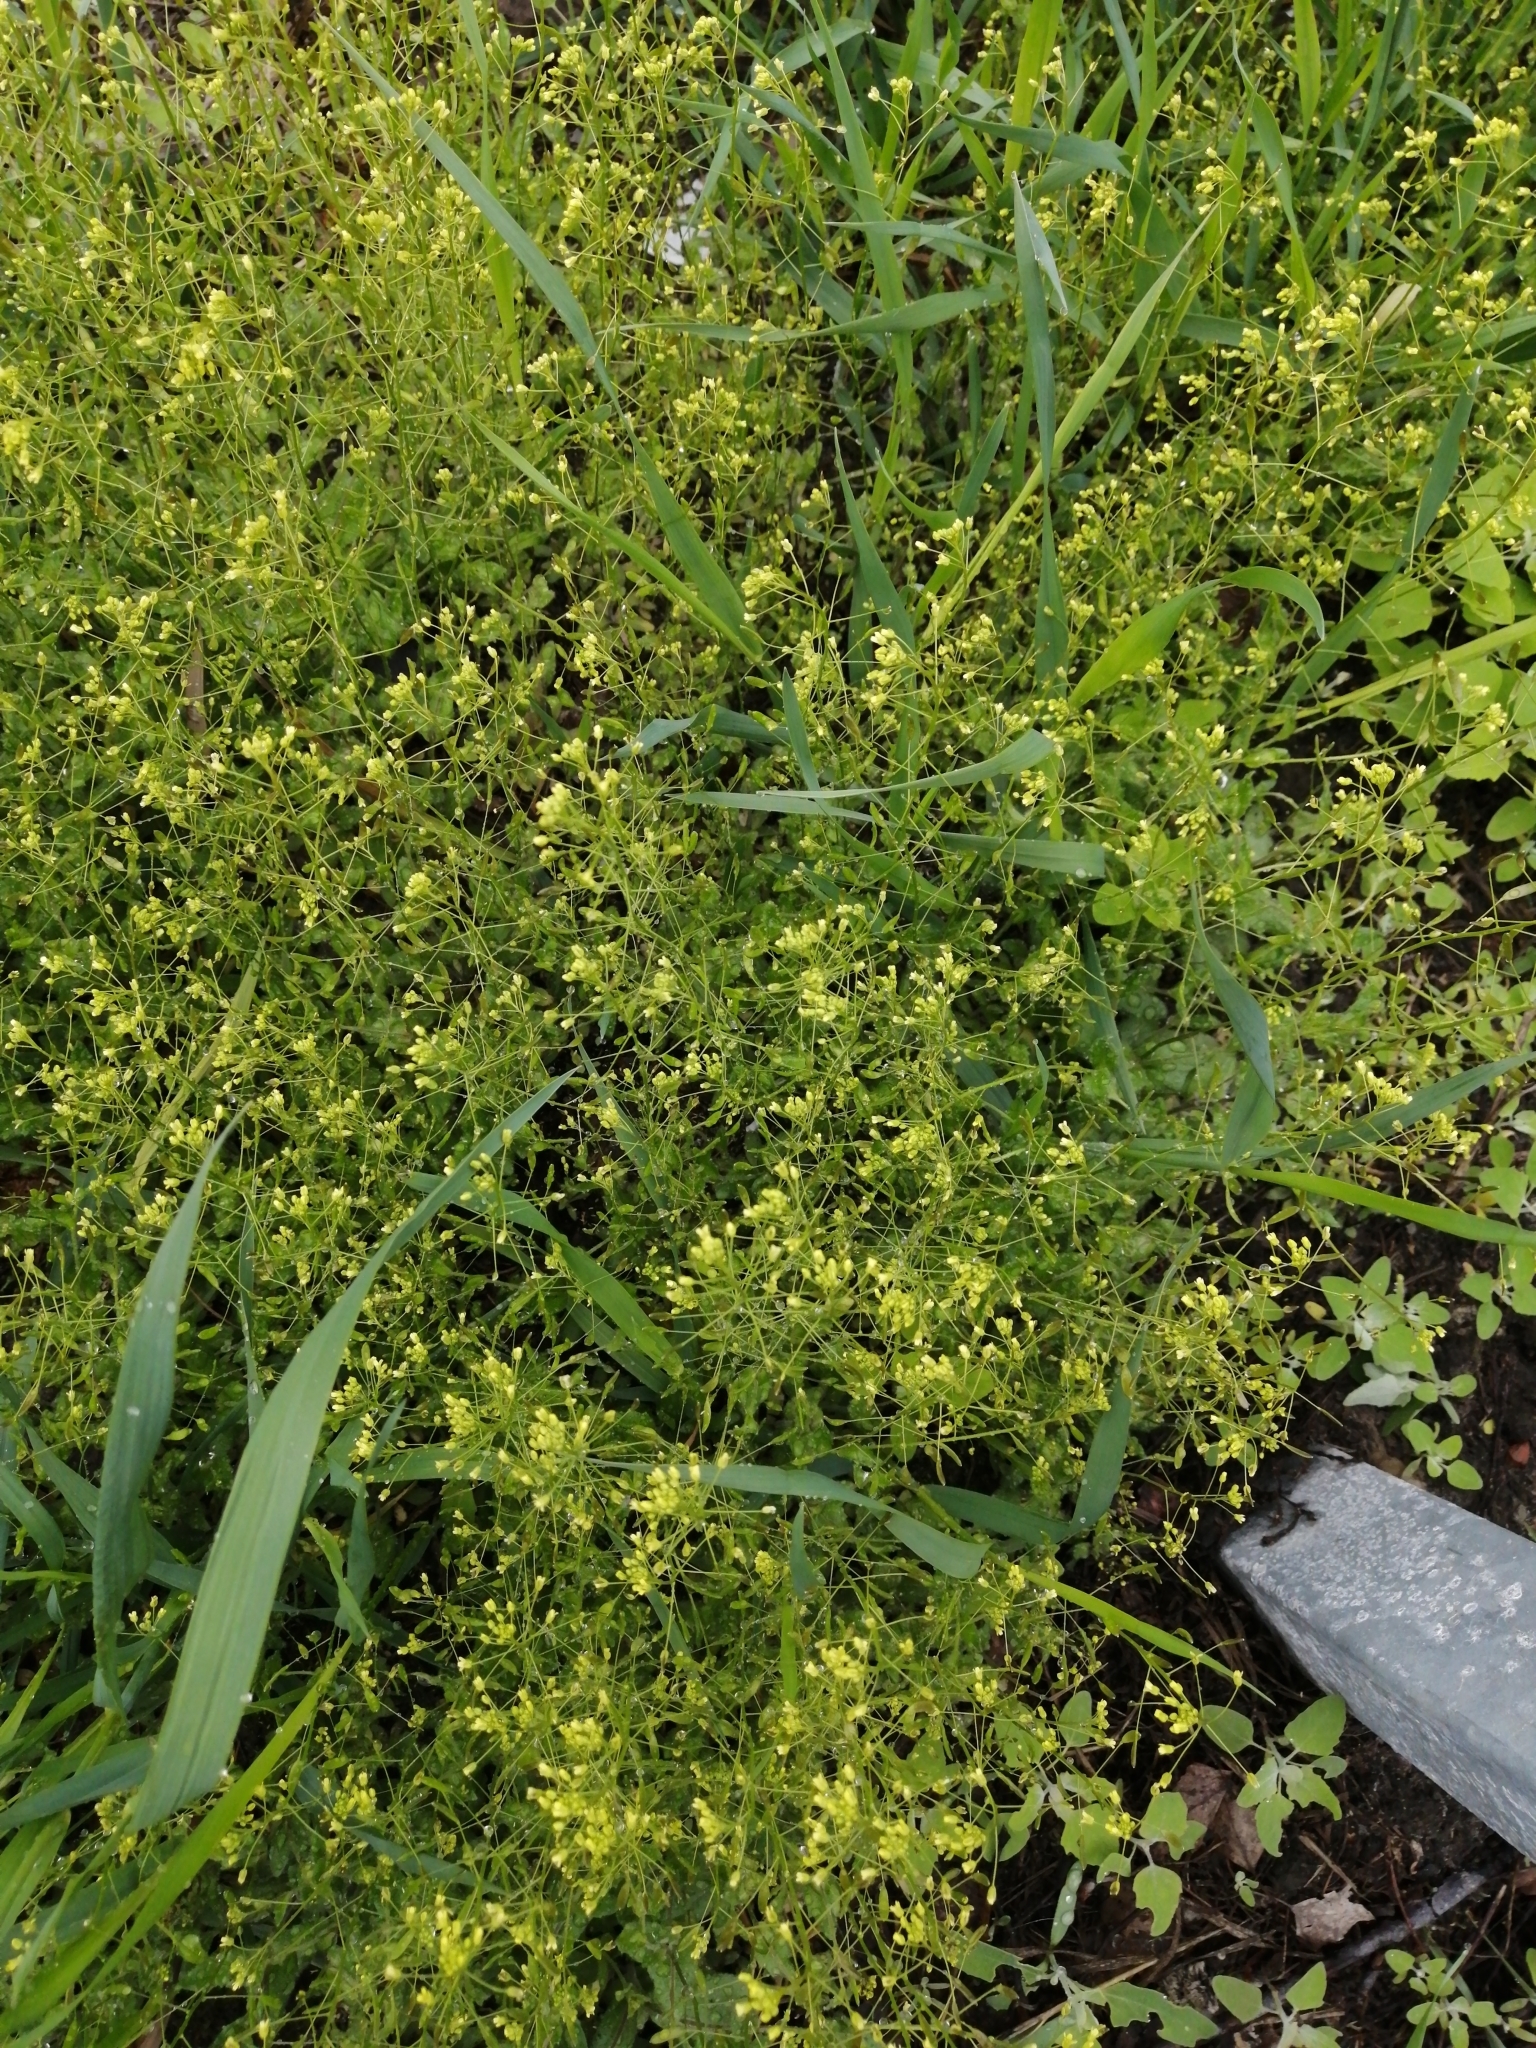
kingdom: Plantae
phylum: Tracheophyta
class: Magnoliopsida
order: Brassicales
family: Brassicaceae
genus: Draba
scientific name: Draba nemorosa
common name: Wood whitlow-grass
